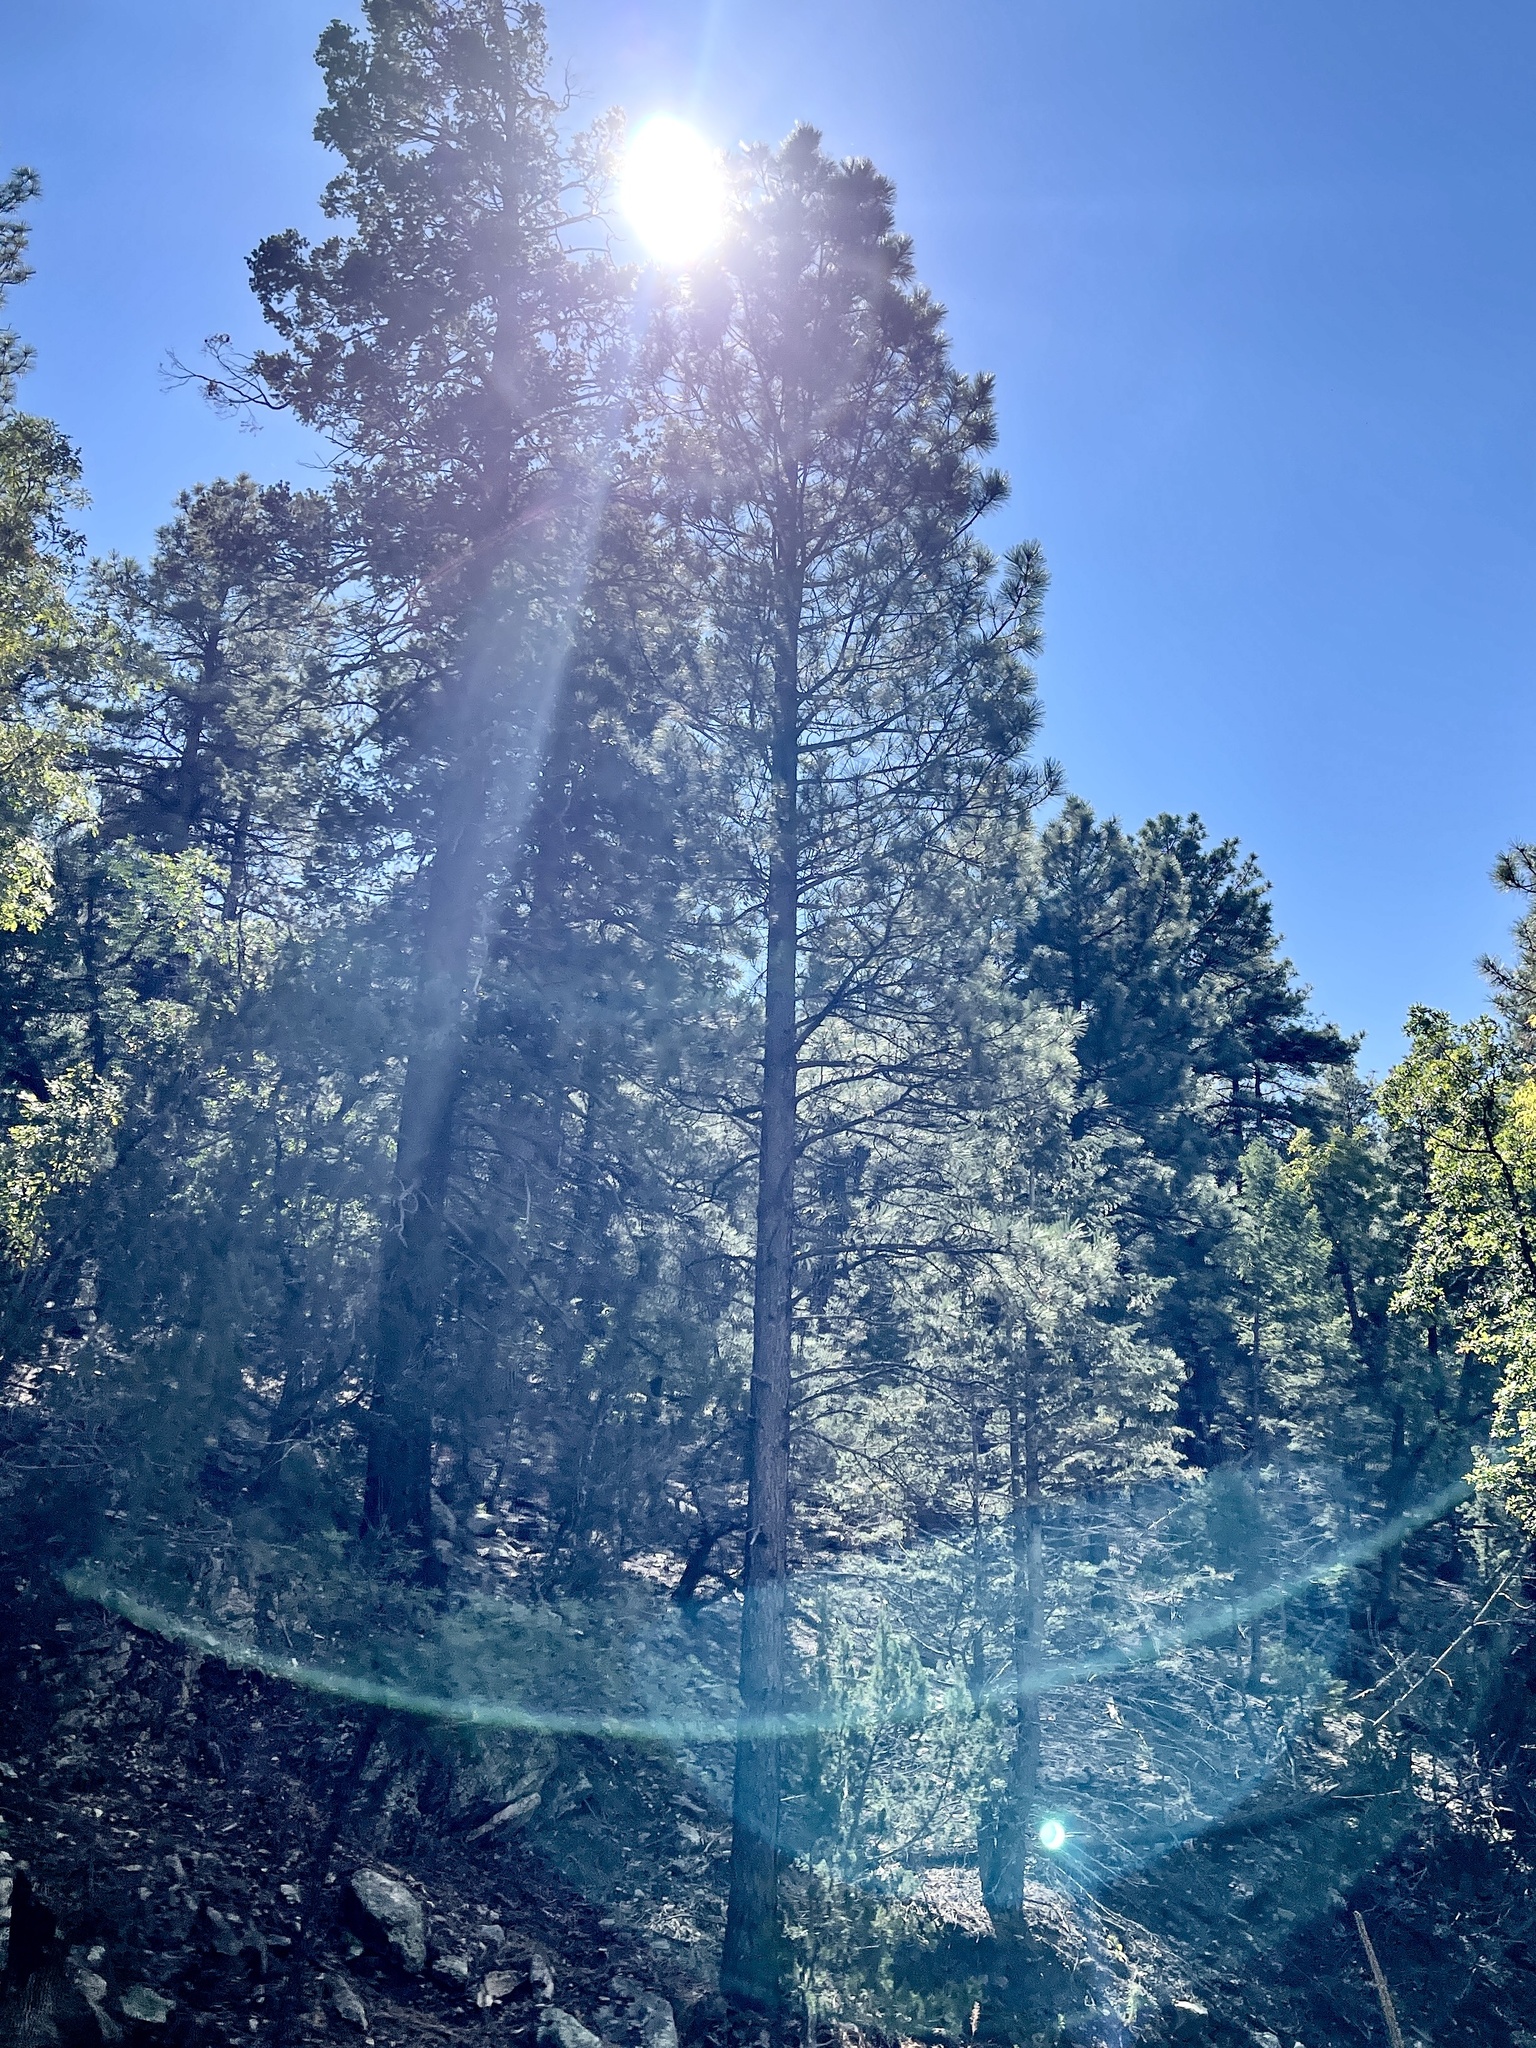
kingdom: Plantae
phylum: Tracheophyta
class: Pinopsida
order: Pinales
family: Pinaceae
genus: Pinus
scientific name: Pinus ponderosa
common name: Western yellow-pine
